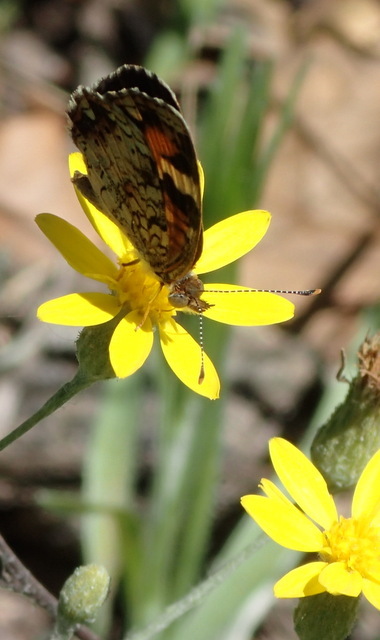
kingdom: Animalia
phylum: Arthropoda
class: Insecta
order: Lepidoptera
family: Nymphalidae
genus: Phyciodes
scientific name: Phyciodes phaon
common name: Phaon crescent
